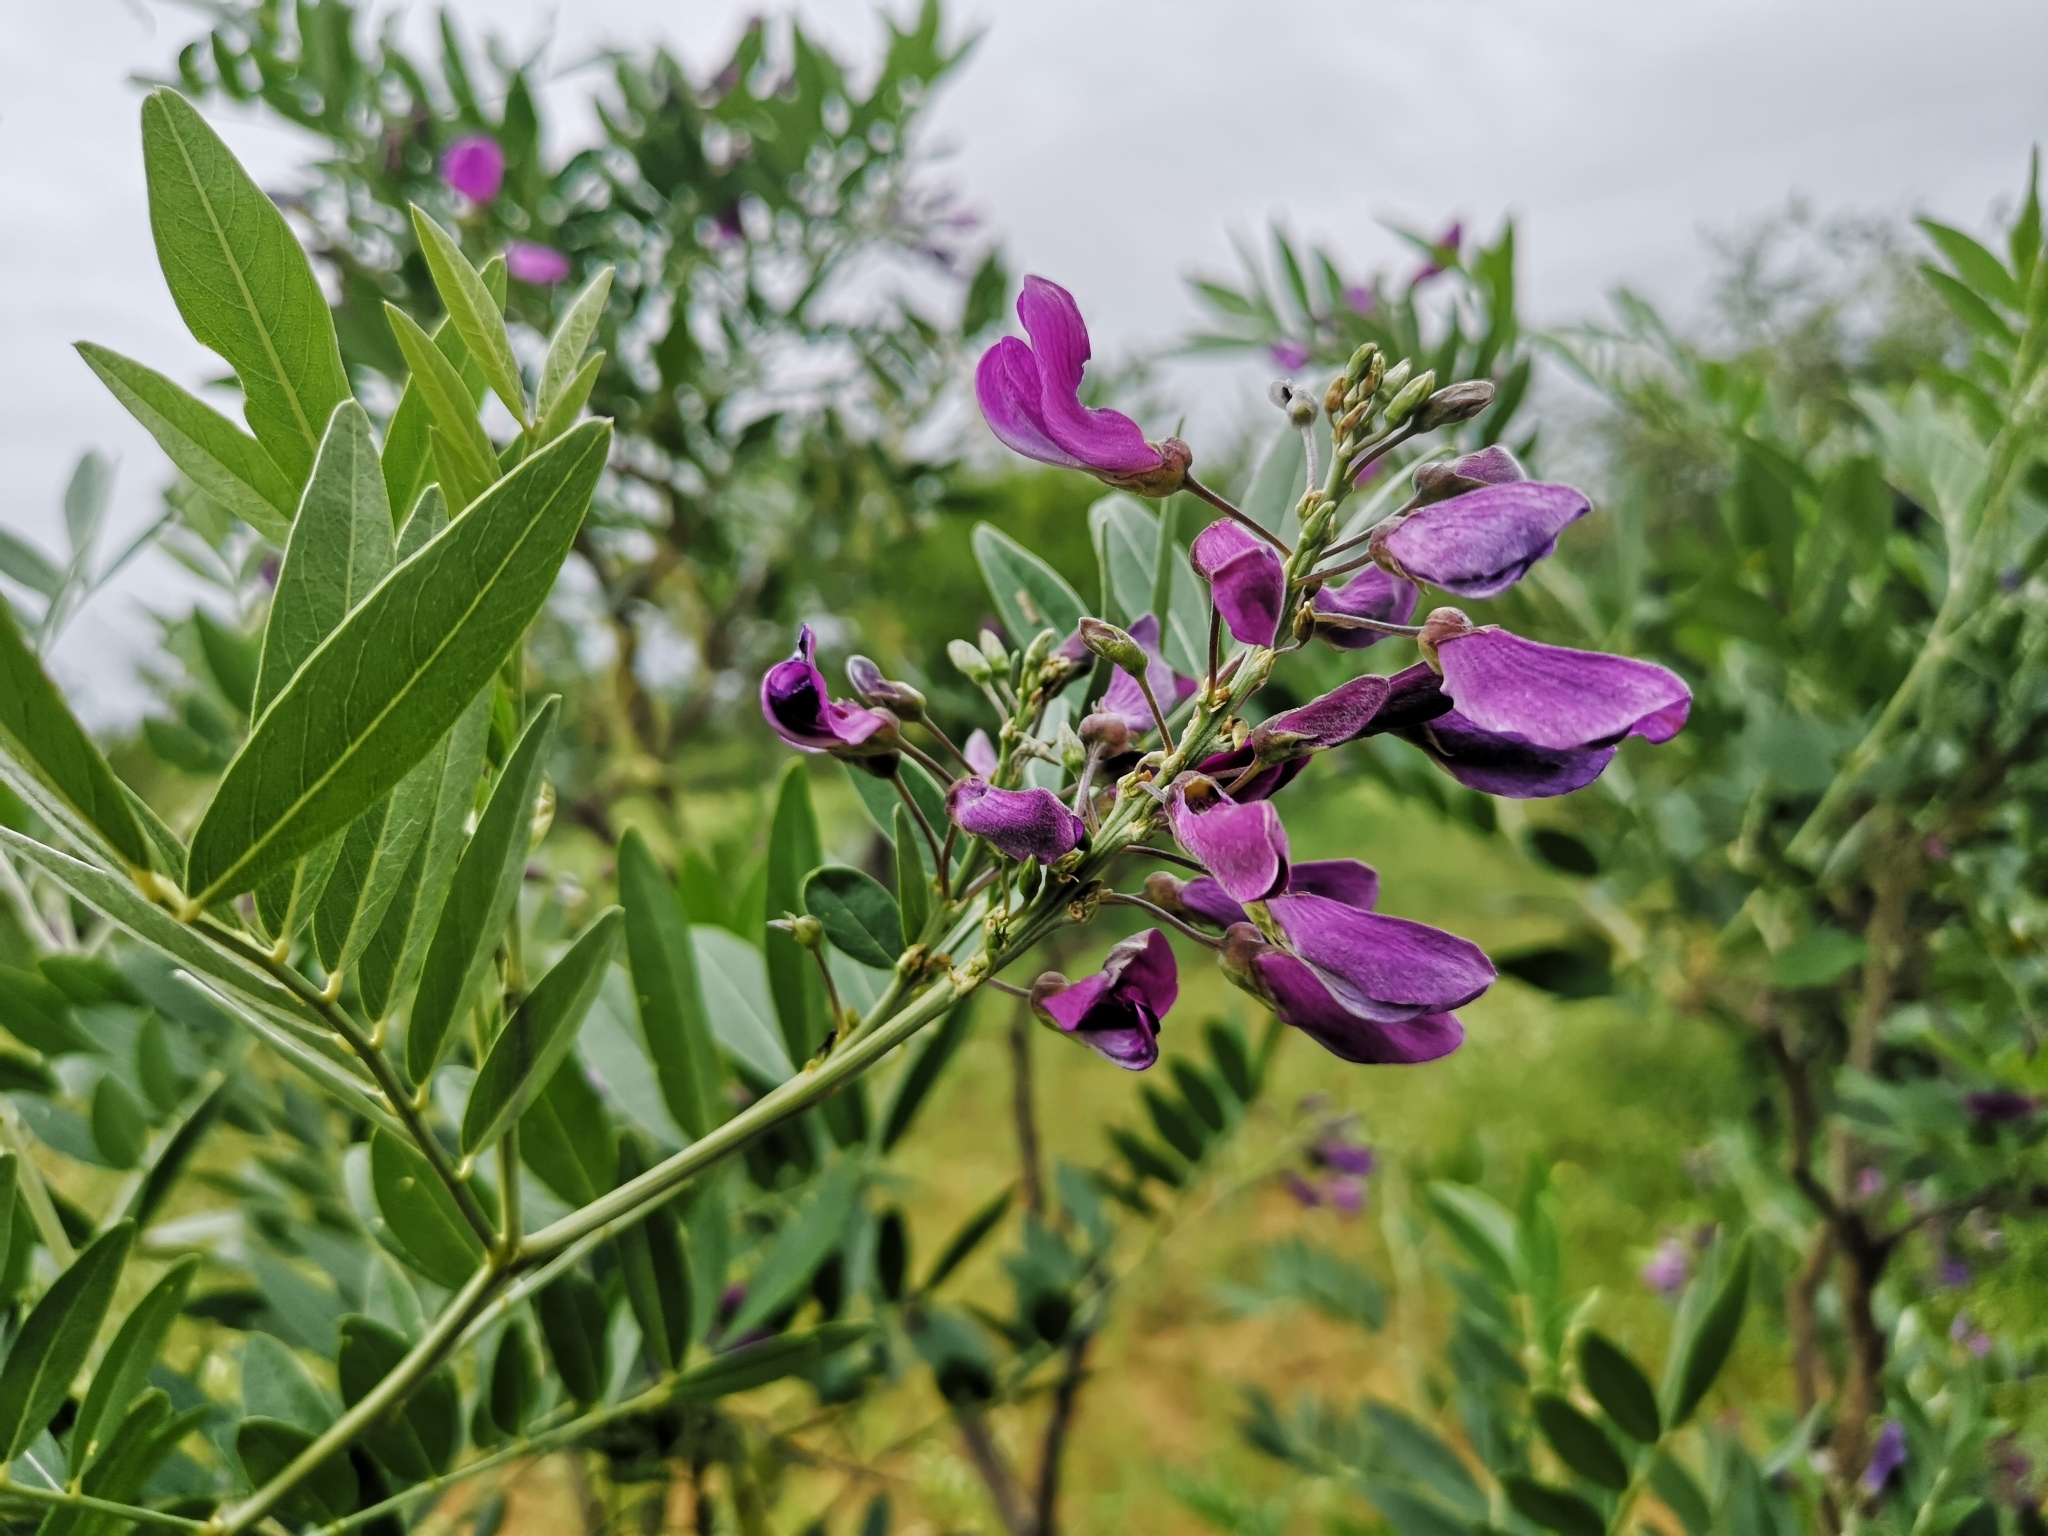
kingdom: Plantae
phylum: Tracheophyta
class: Magnoliopsida
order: Fabales
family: Fabaceae
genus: Mundulea
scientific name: Mundulea sericea
